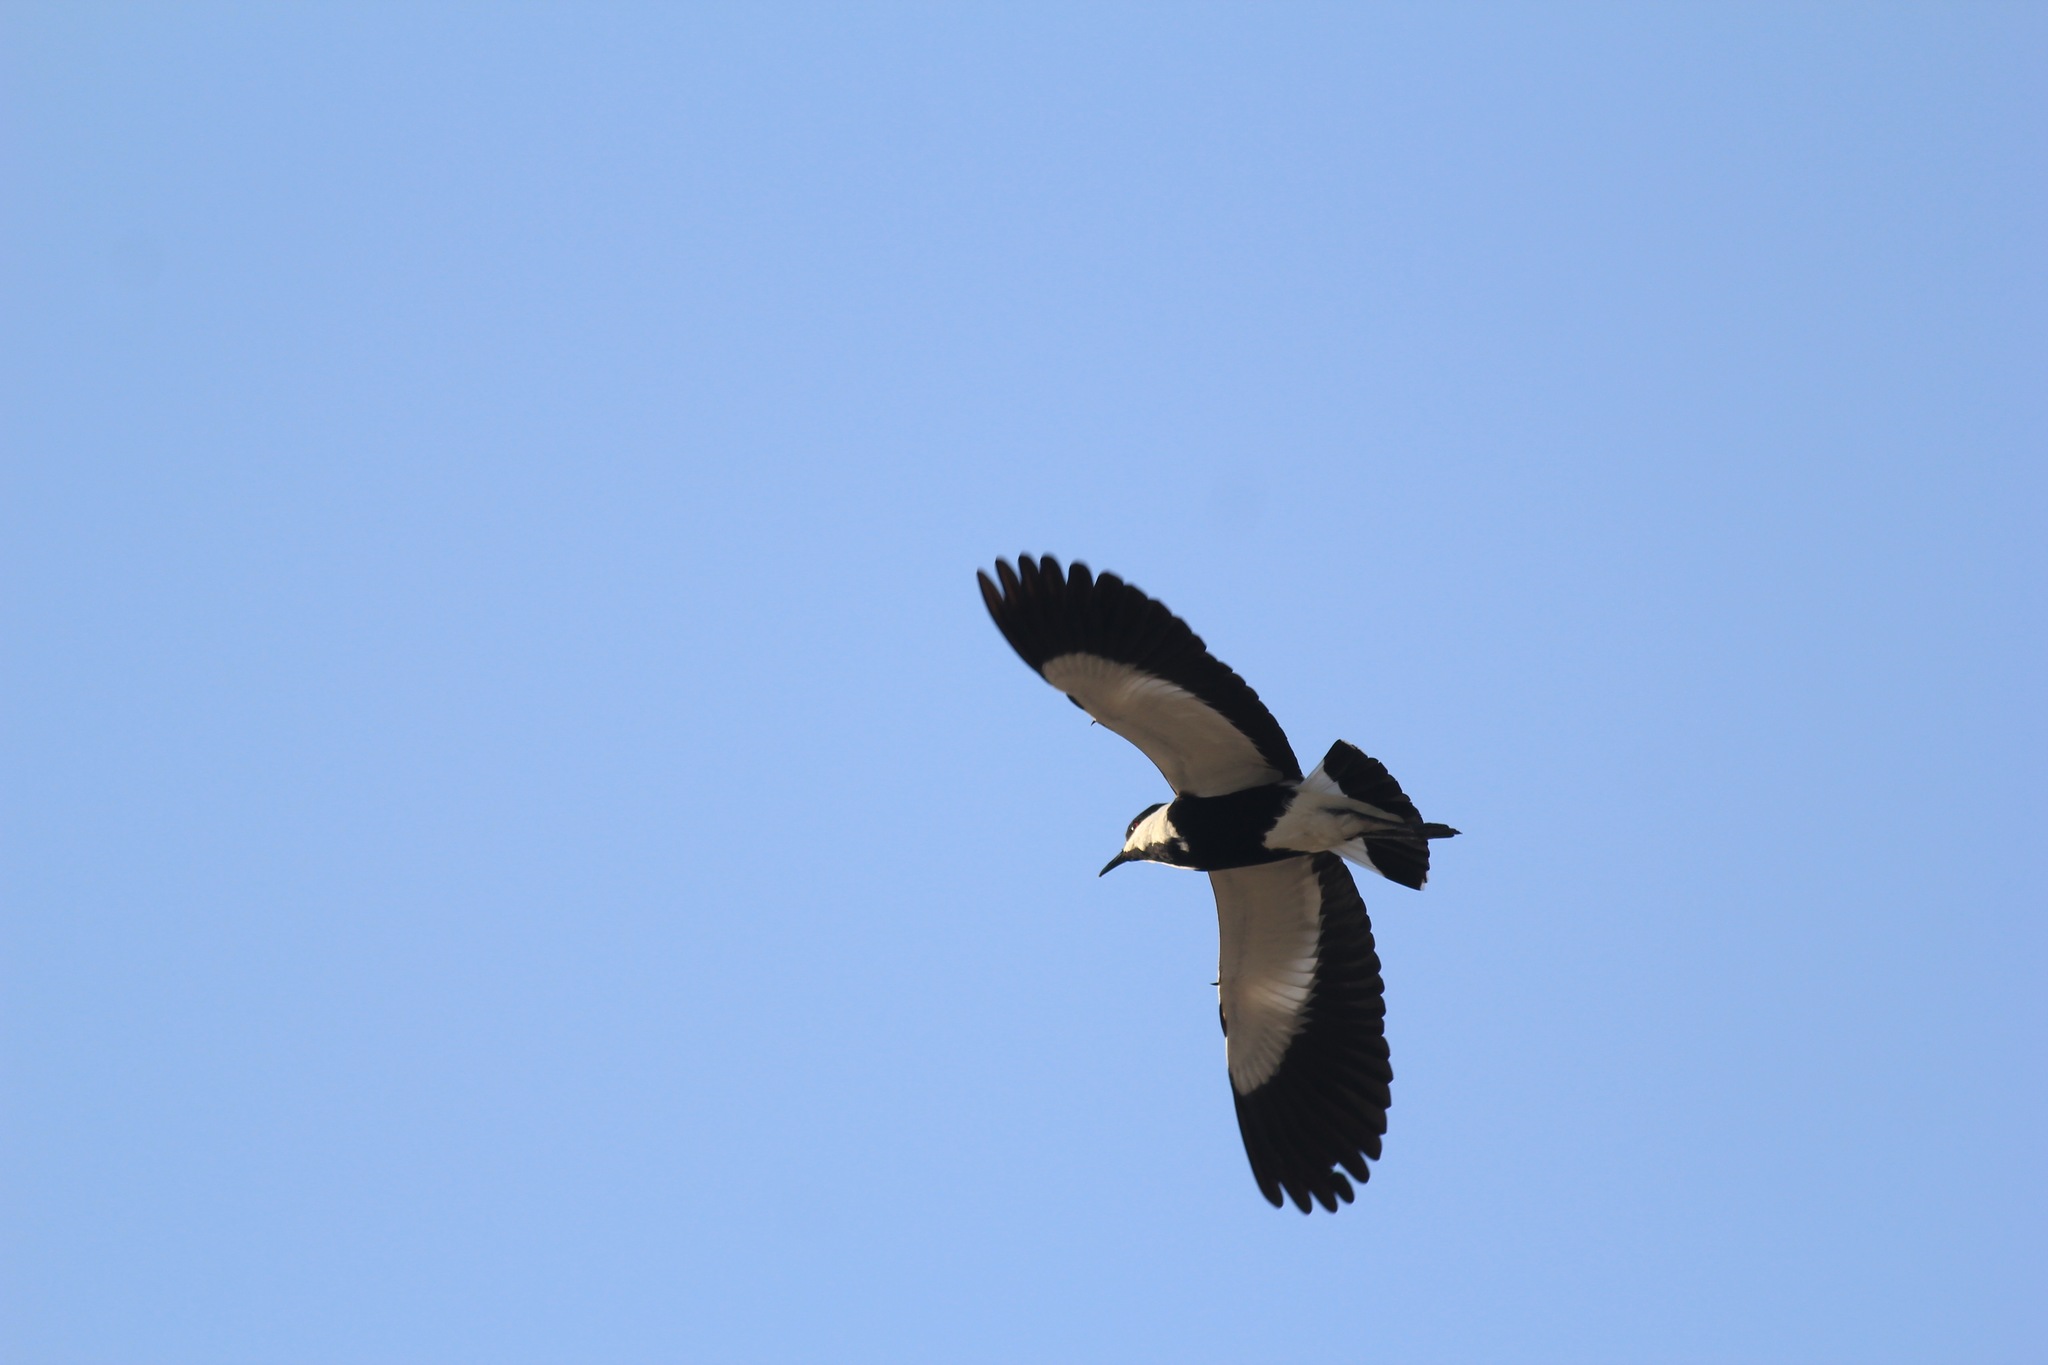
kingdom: Animalia
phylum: Chordata
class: Aves
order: Charadriiformes
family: Charadriidae
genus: Vanellus
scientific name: Vanellus spinosus
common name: Spur-winged lapwing
